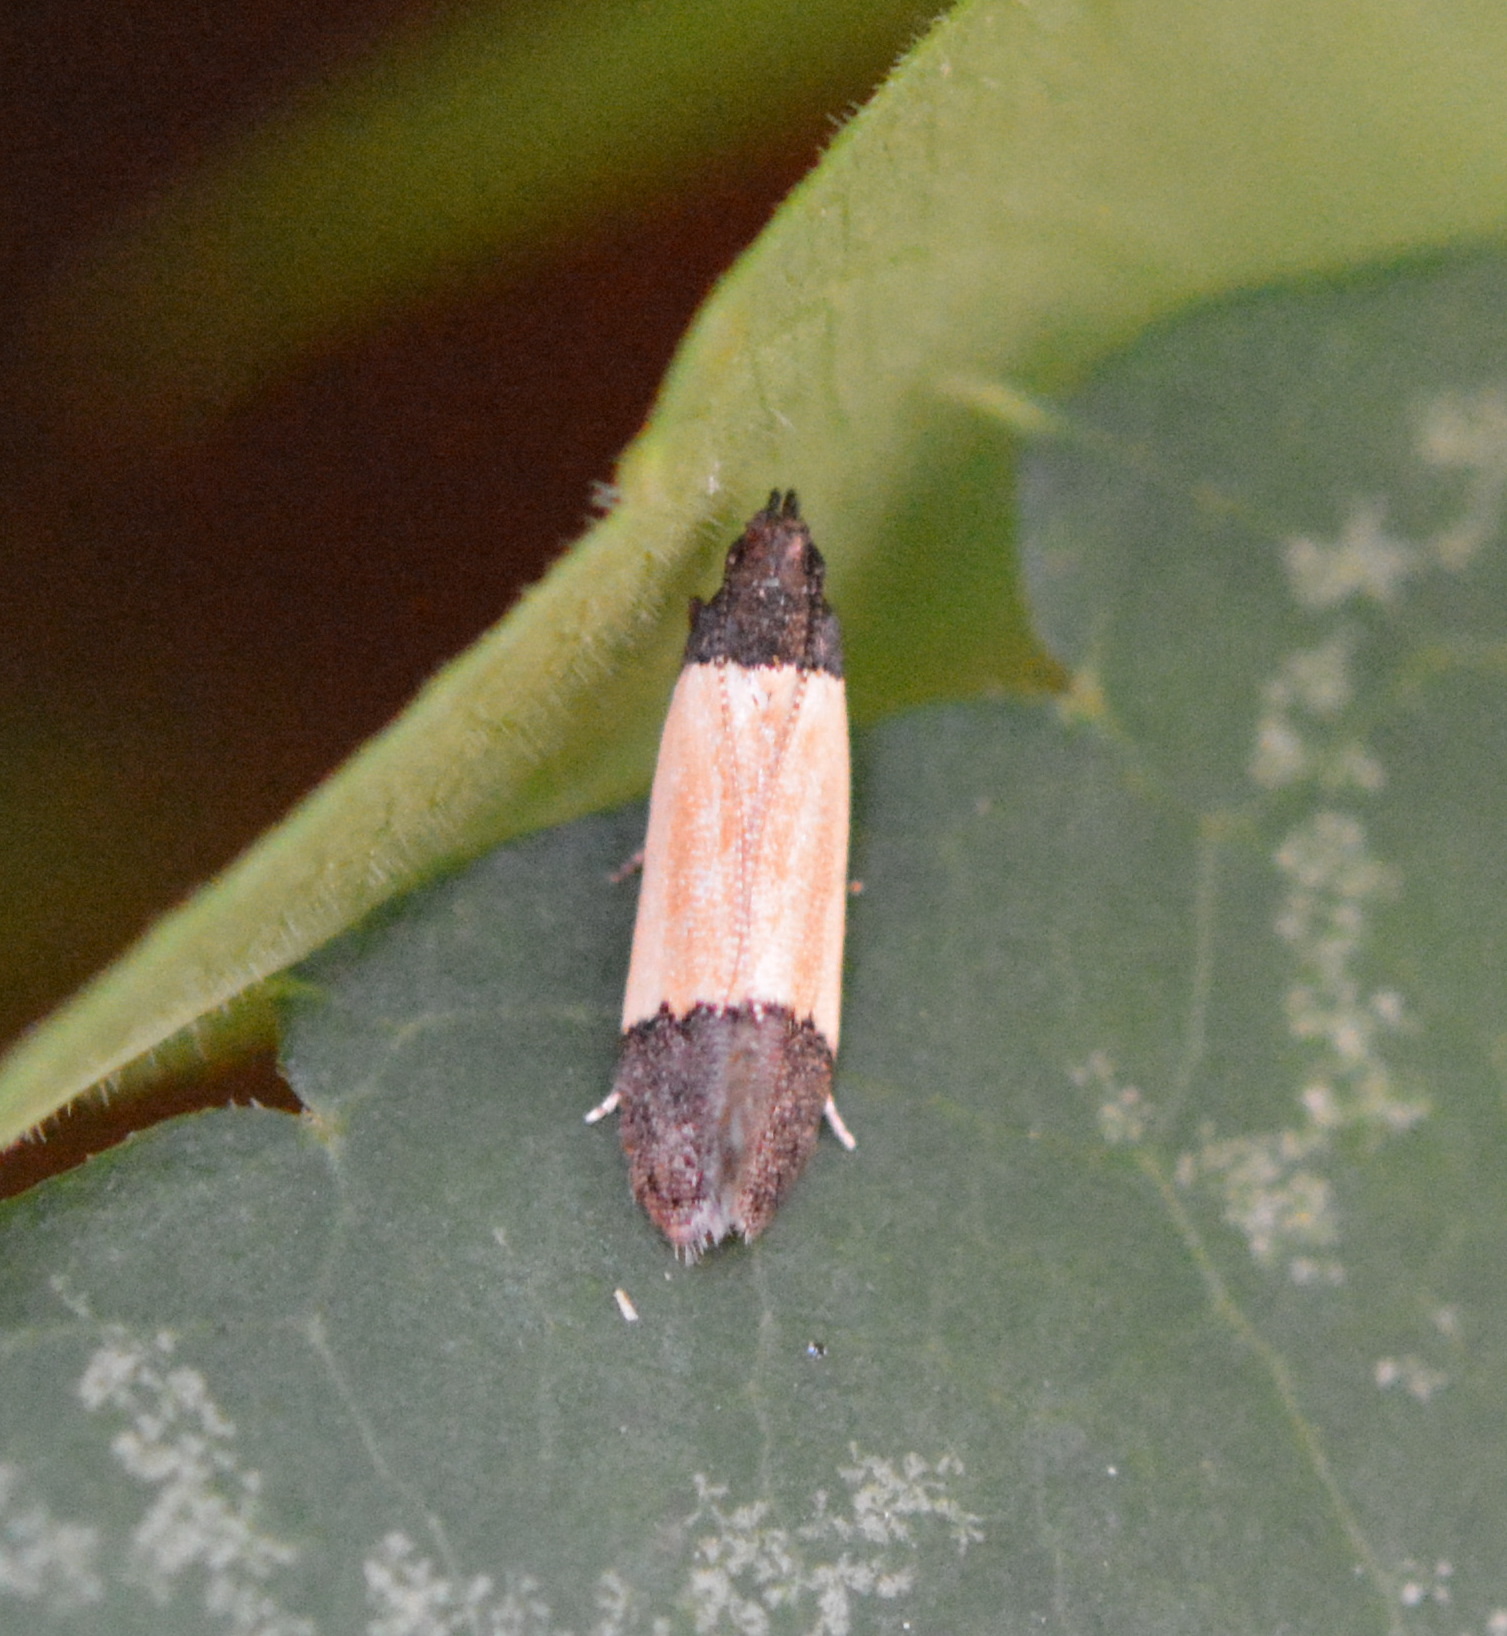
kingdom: Animalia
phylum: Arthropoda
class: Insecta
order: Lepidoptera
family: Gelechiidae
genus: Anacampsis
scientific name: Anacampsis coverdalella
